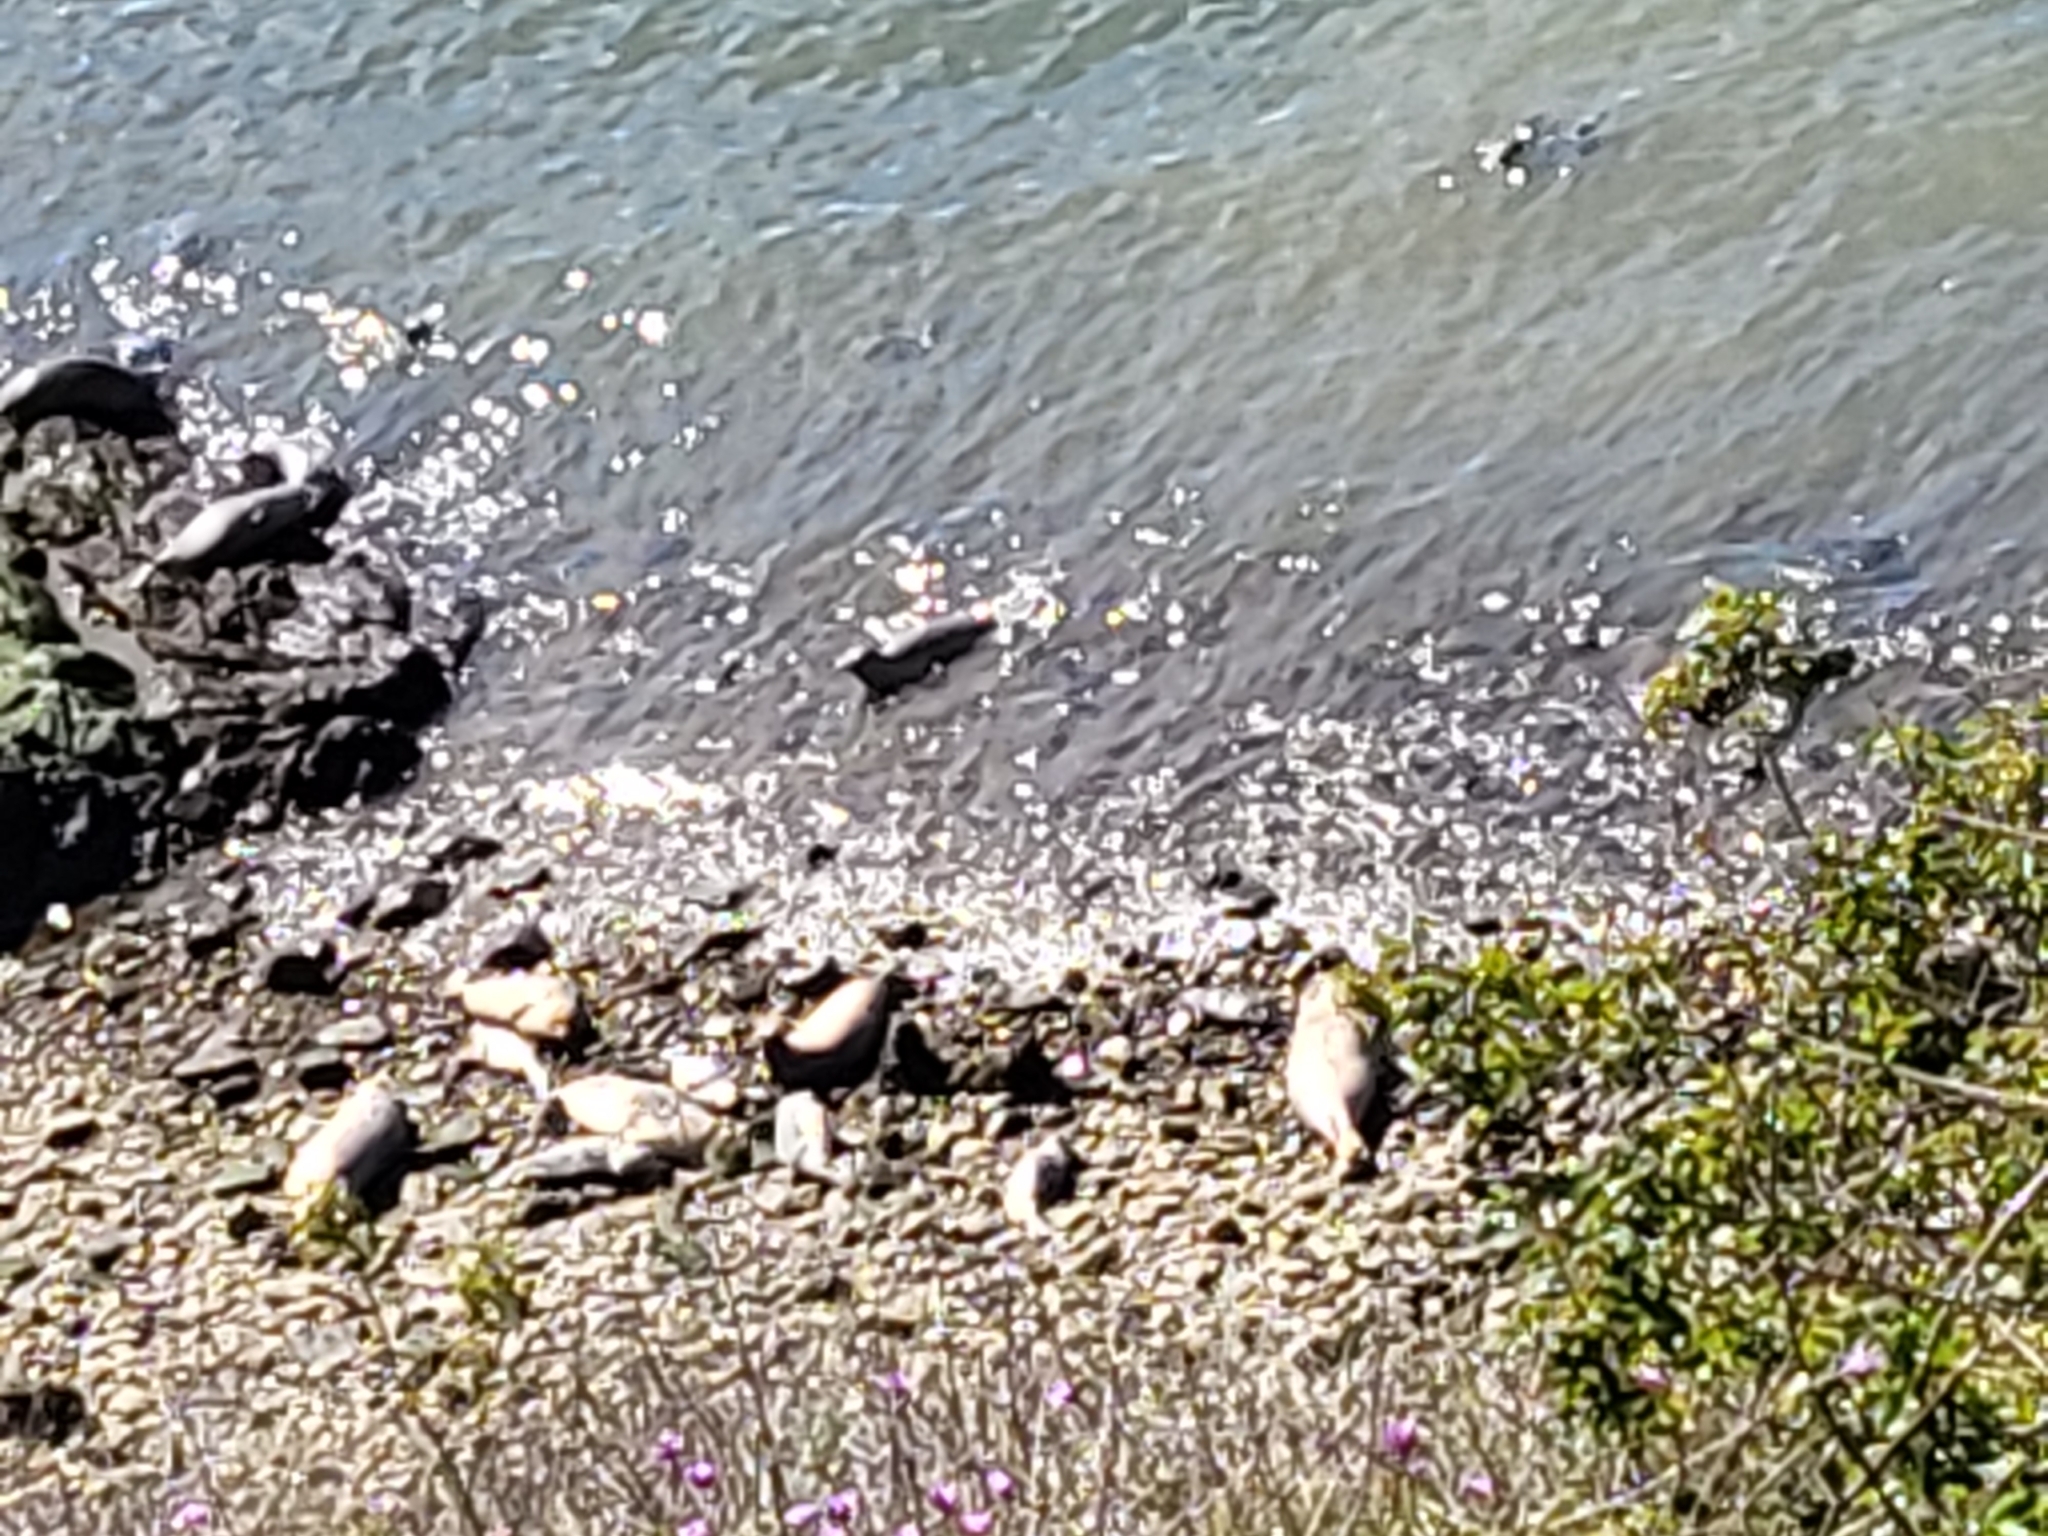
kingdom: Animalia
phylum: Chordata
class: Mammalia
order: Carnivora
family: Phocidae
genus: Phoca
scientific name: Phoca vitulina
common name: Harbor seal
